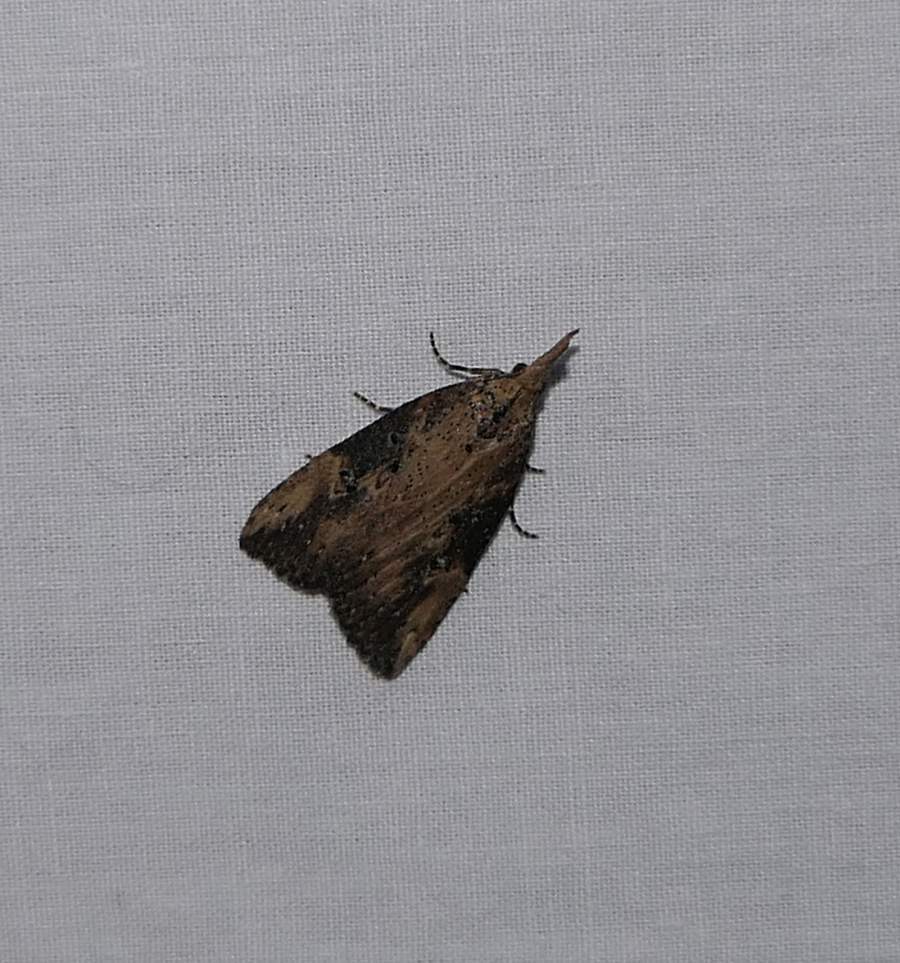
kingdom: Animalia
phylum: Arthropoda
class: Insecta
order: Lepidoptera
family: Erebidae
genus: Hypena
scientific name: Hypena humuli
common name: Hop vine snout
